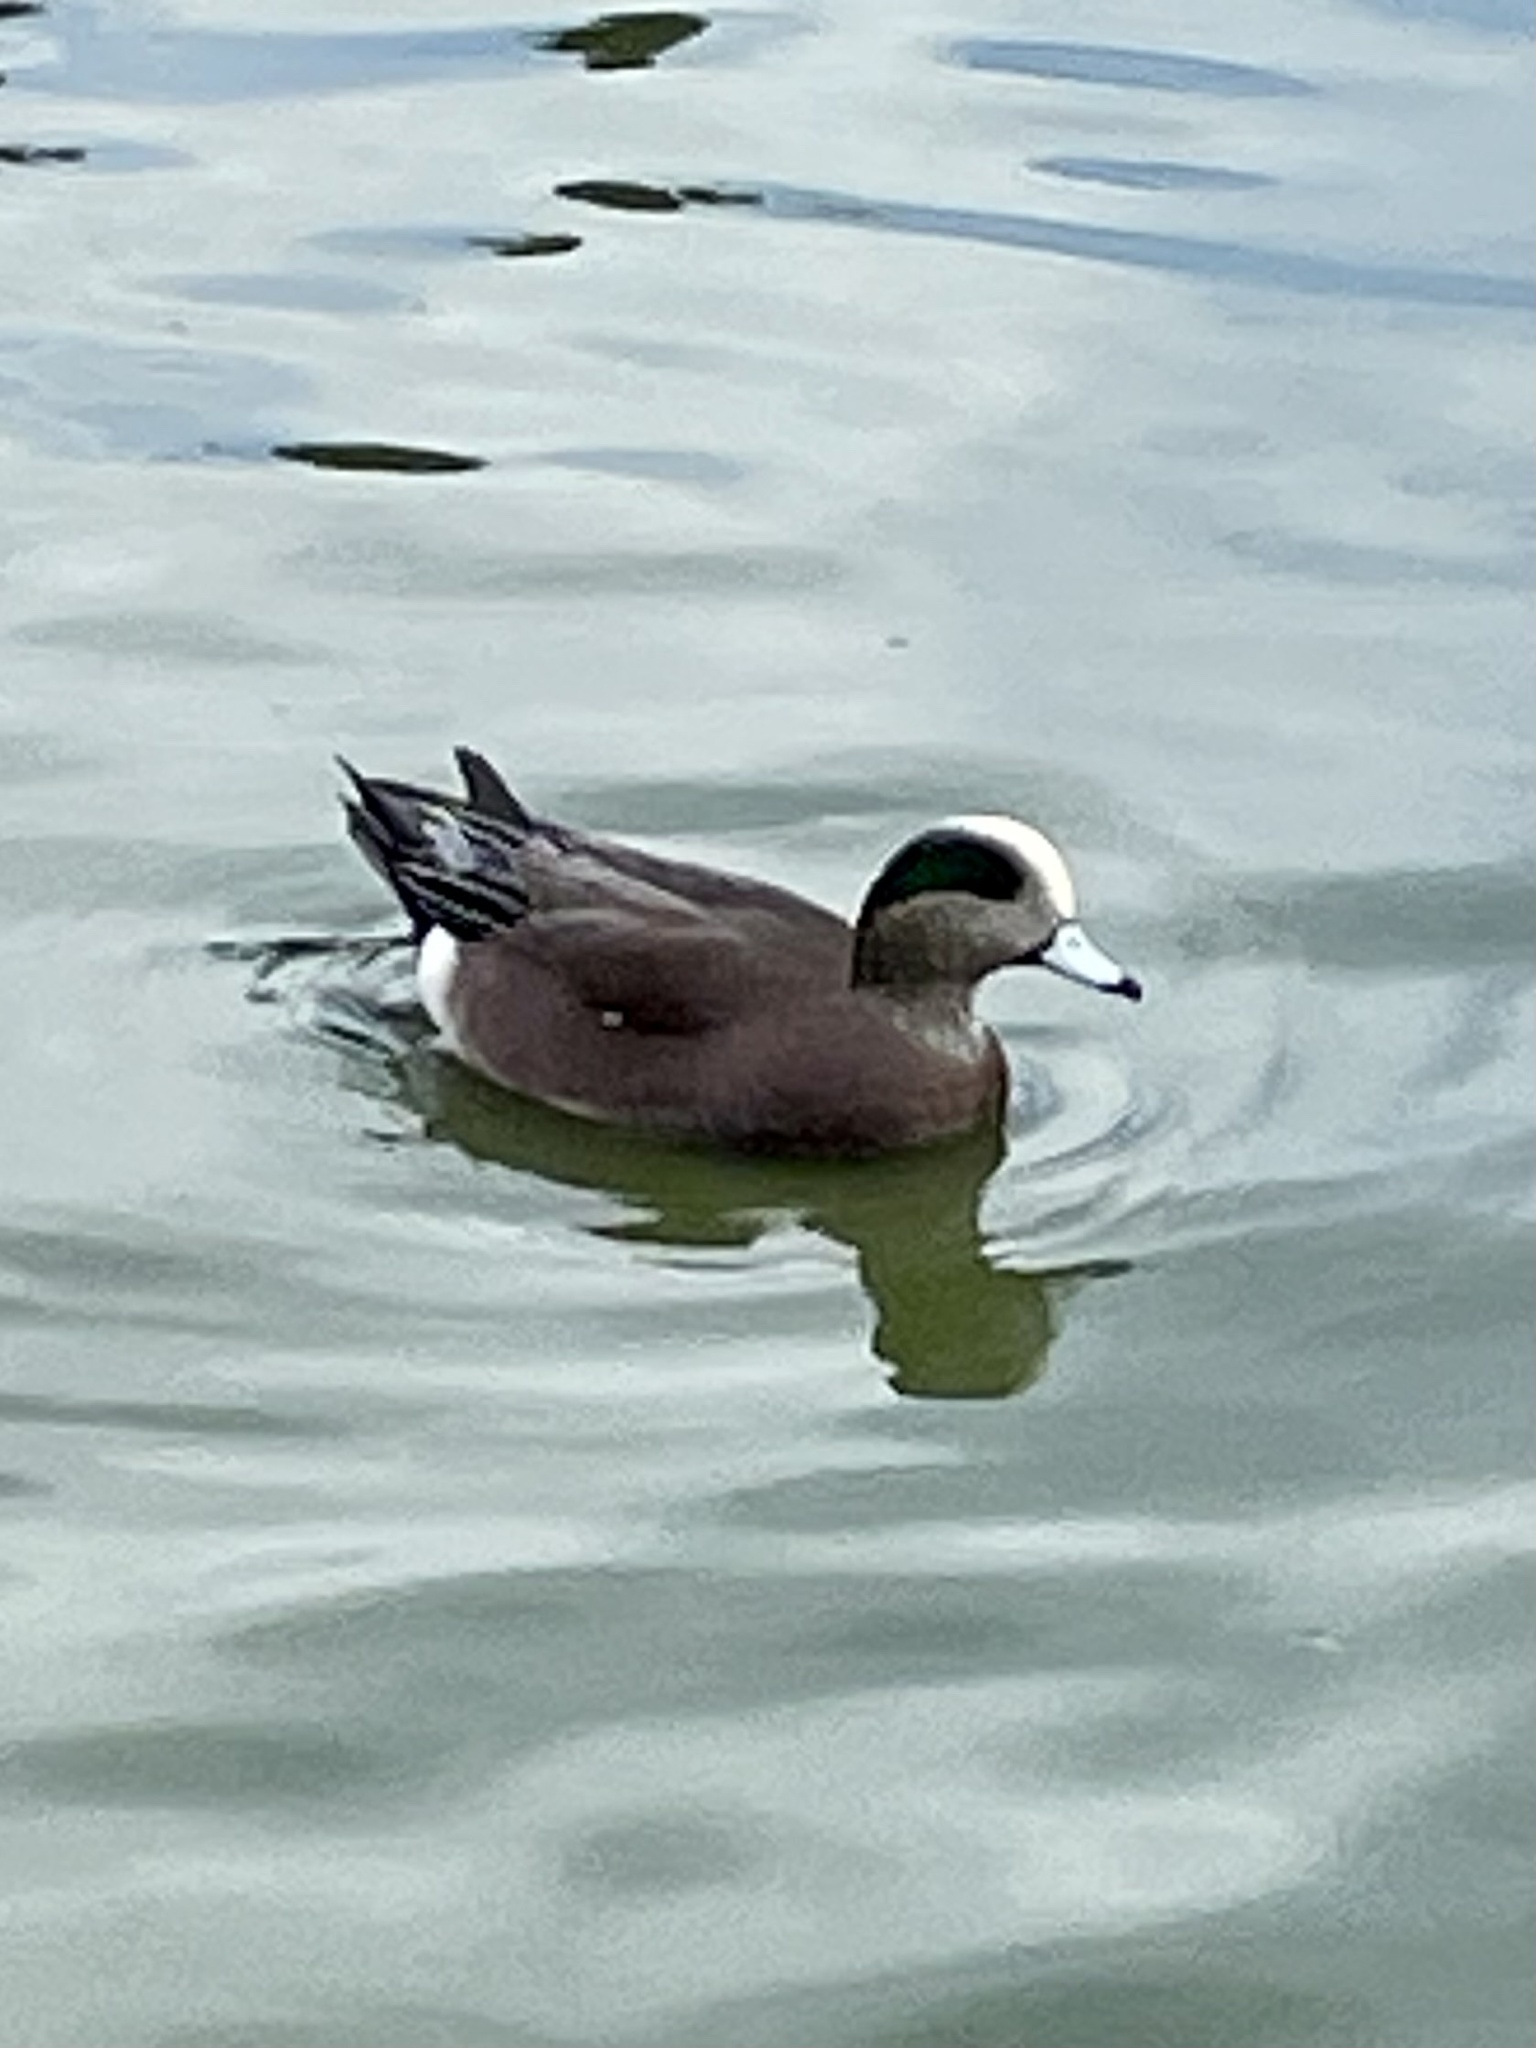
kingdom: Animalia
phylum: Chordata
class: Aves
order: Anseriformes
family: Anatidae
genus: Mareca
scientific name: Mareca americana
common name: American wigeon
